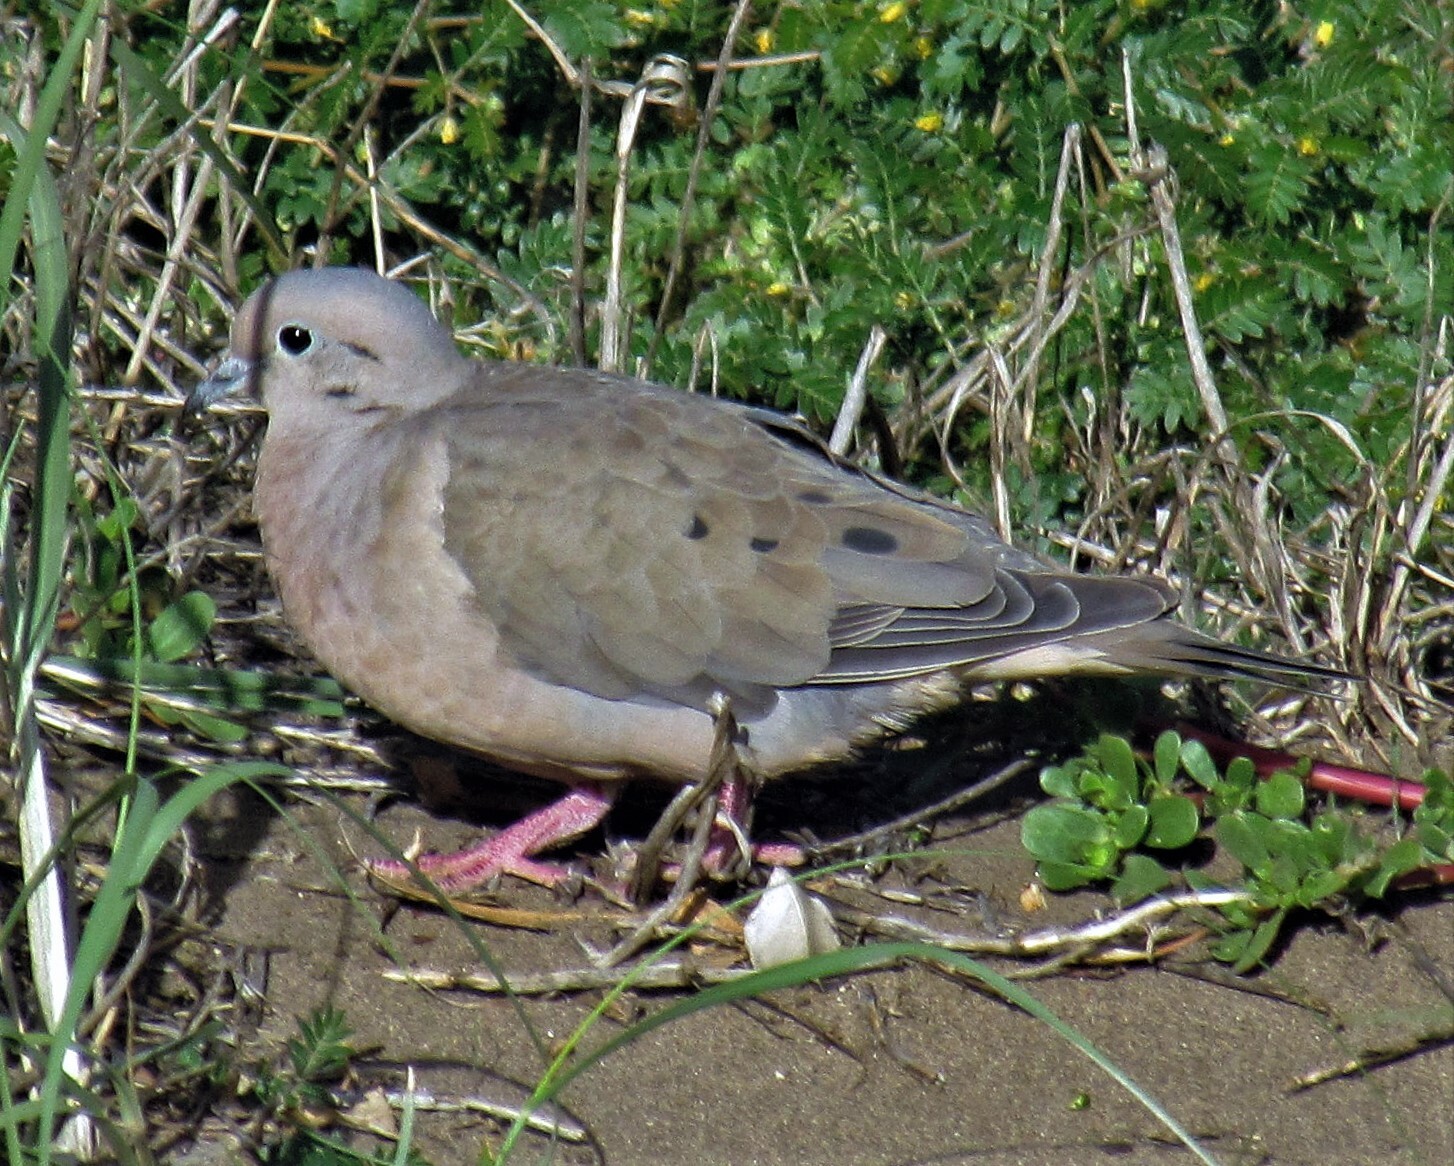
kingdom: Animalia
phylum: Chordata
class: Aves
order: Columbiformes
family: Columbidae
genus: Zenaida
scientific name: Zenaida auriculata
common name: Eared dove
